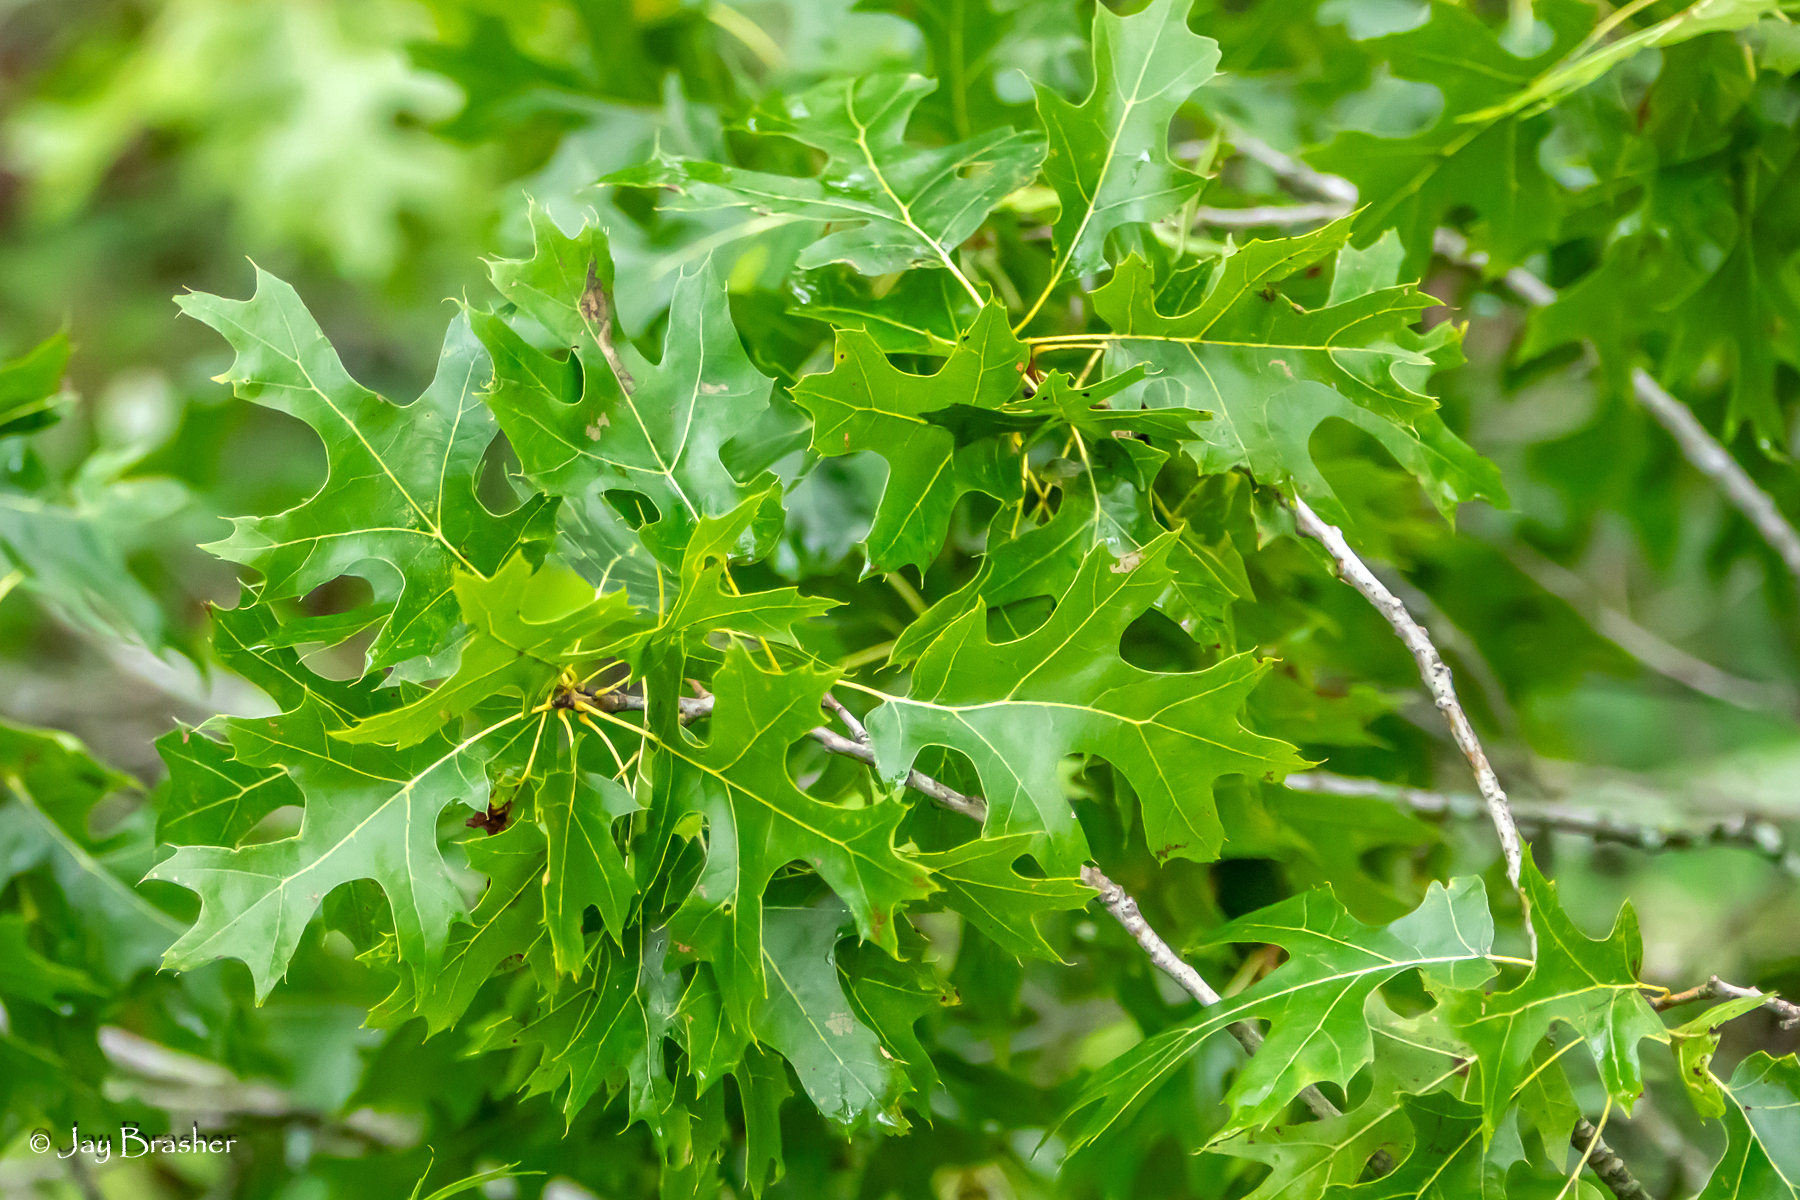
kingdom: Plantae
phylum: Tracheophyta
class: Magnoliopsida
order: Fagales
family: Fagaceae
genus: Quercus
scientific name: Quercus shumardii
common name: Shumard oak
